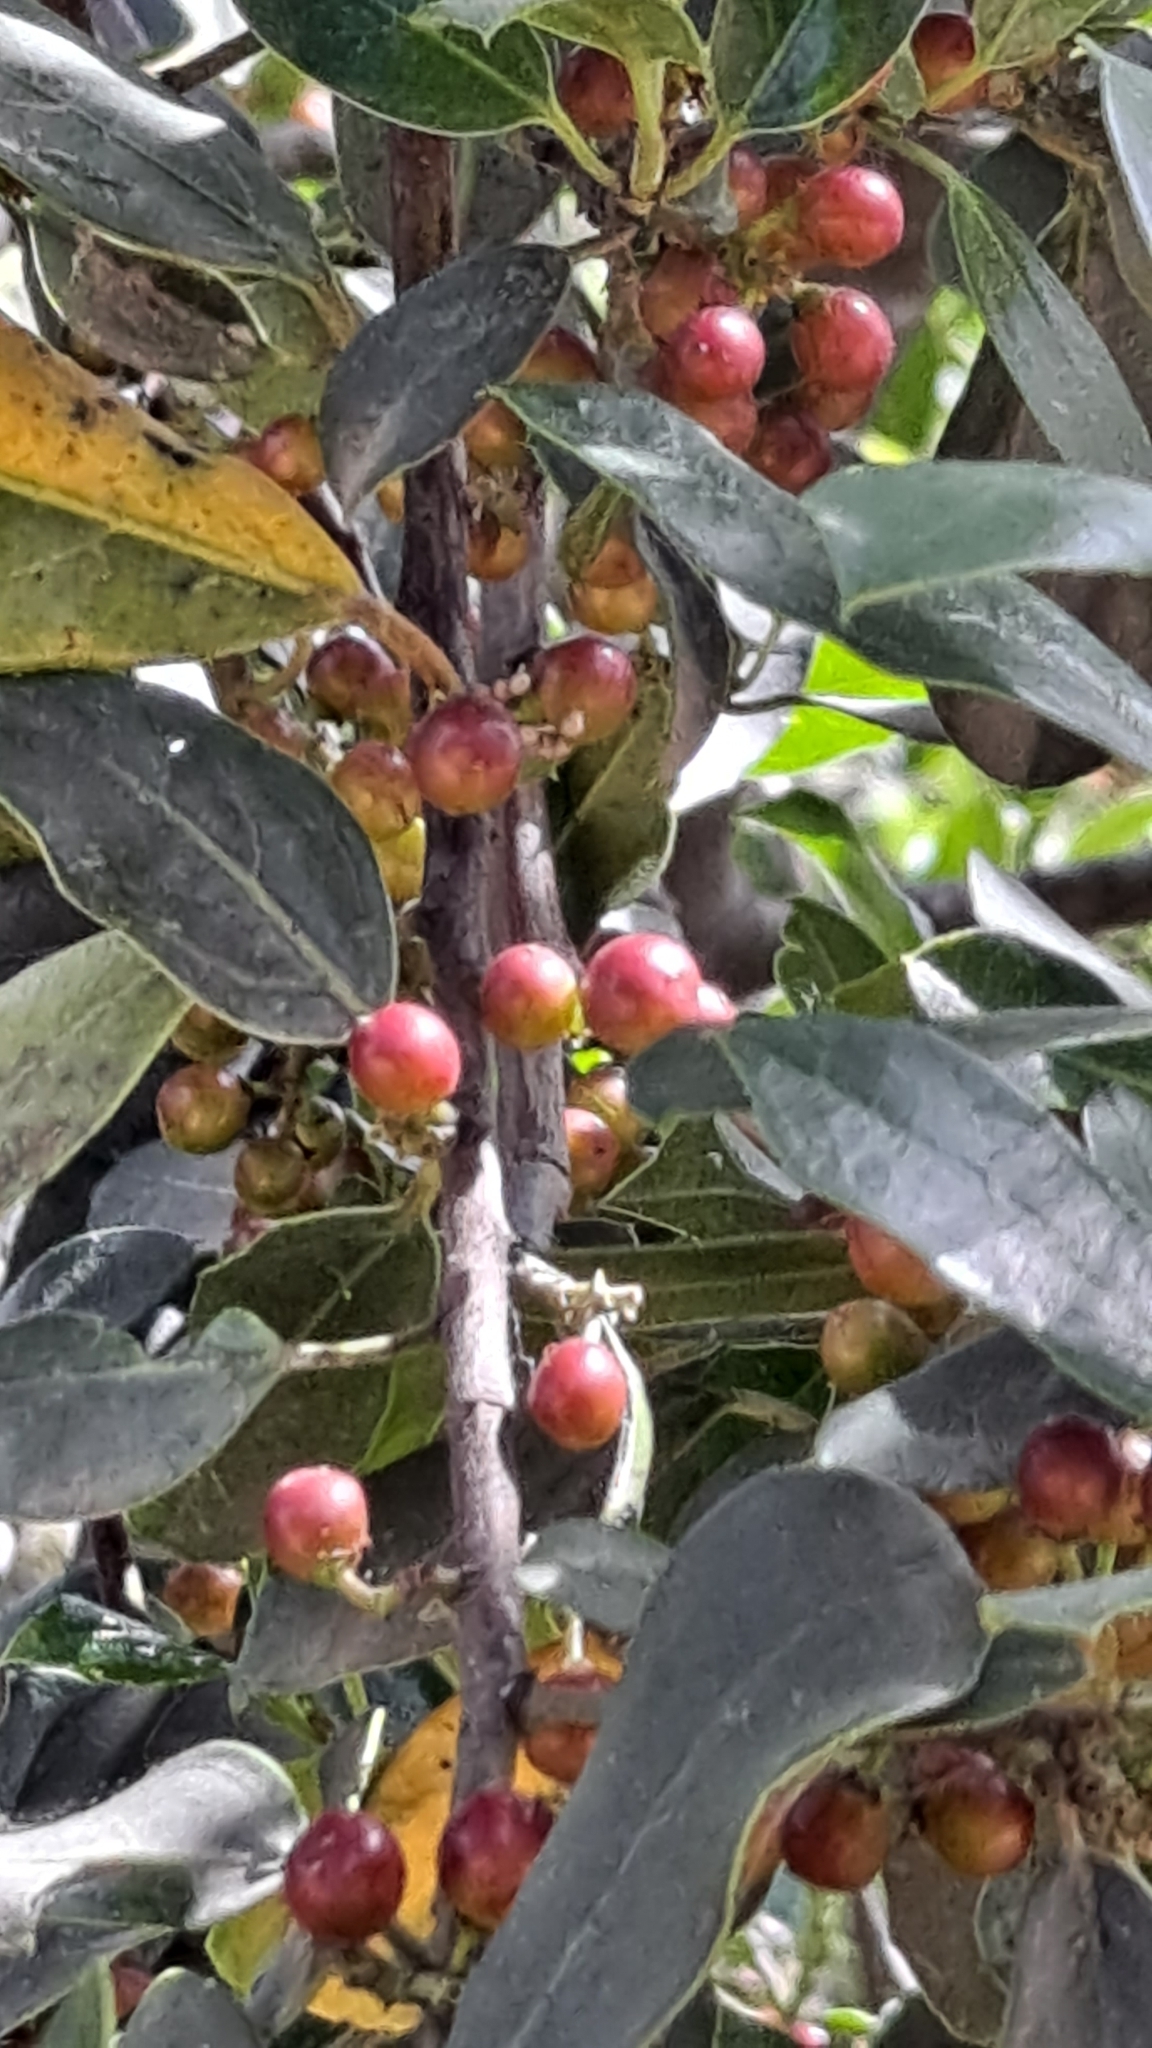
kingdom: Plantae
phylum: Tracheophyta
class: Magnoliopsida
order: Rosales
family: Rhamnaceae
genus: Rhamnus
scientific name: Rhamnus alaternus
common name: Mediterranean buckthorn
